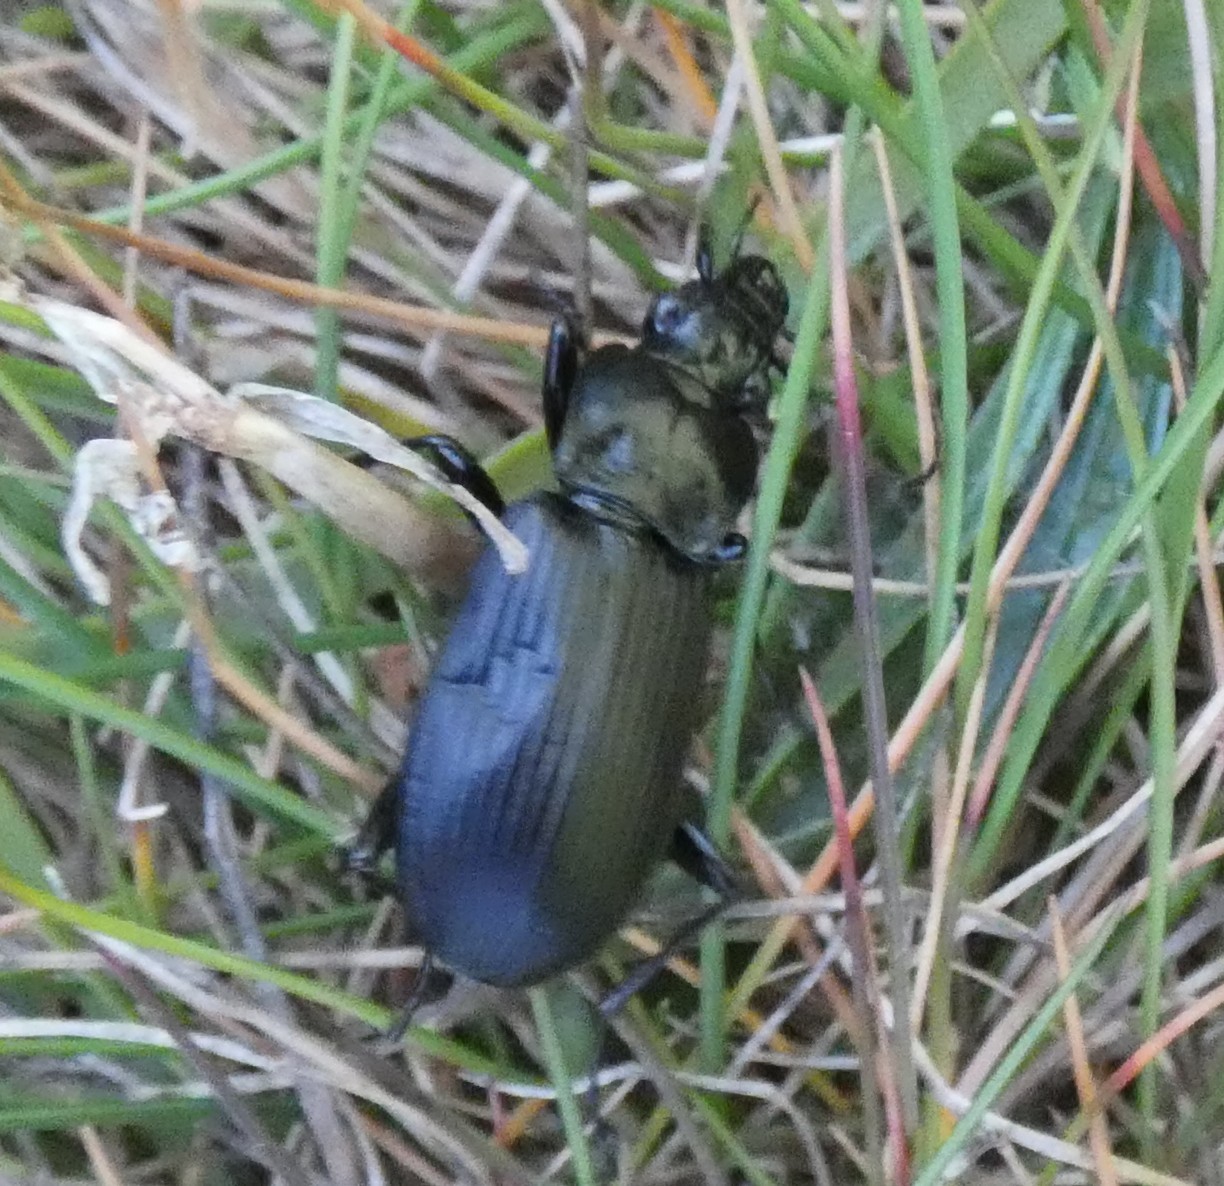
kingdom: Animalia
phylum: Arthropoda
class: Insecta
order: Coleoptera
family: Carabidae
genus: Pterostichus
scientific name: Pterostichus niger
